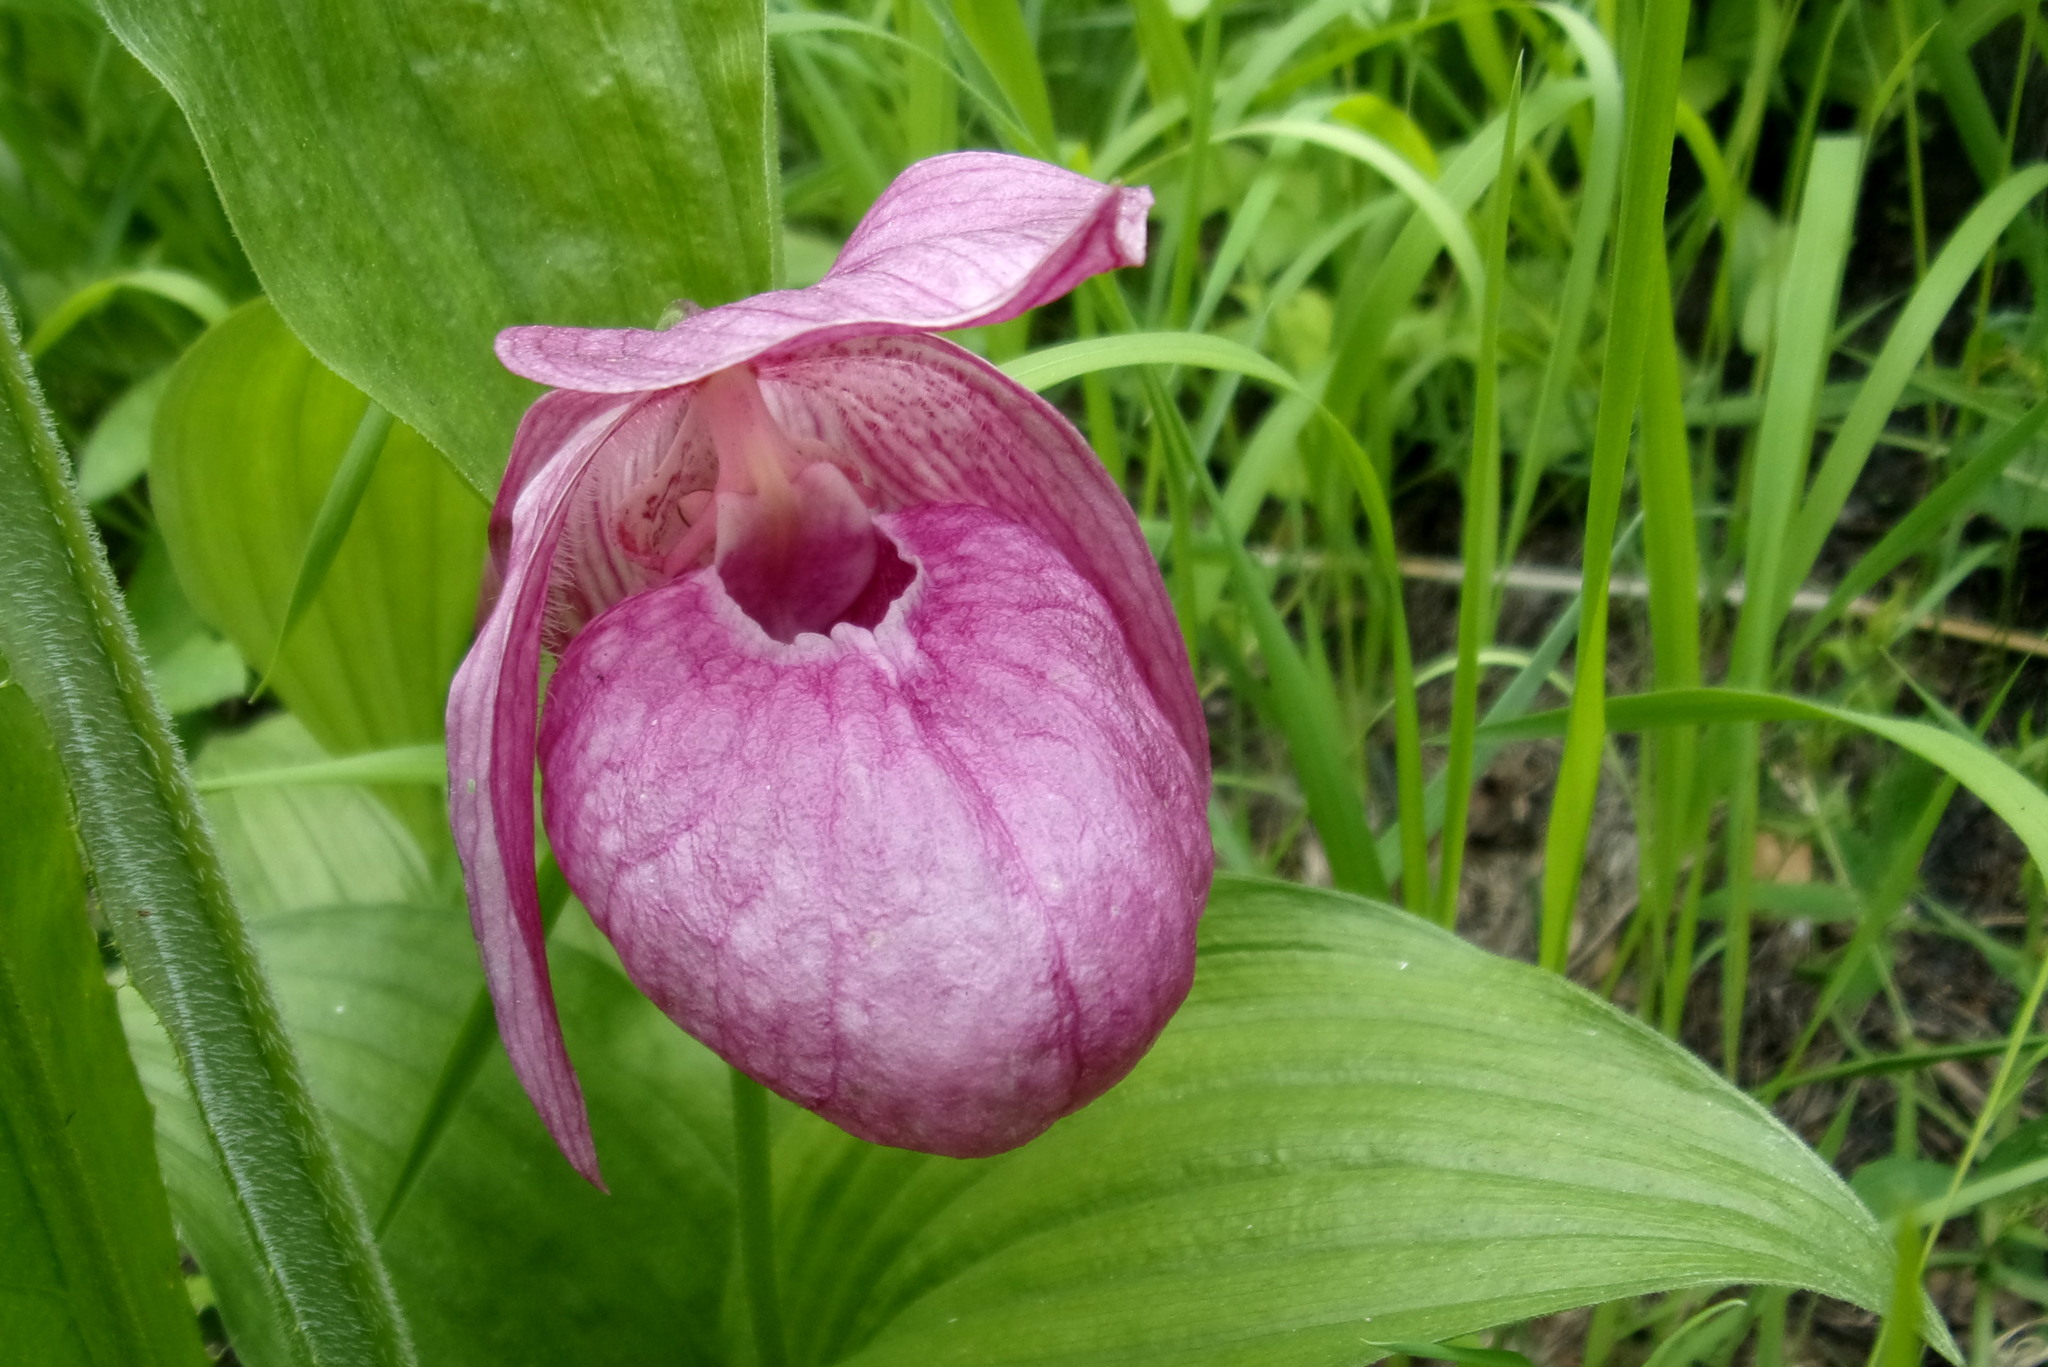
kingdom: Plantae
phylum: Tracheophyta
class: Liliopsida
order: Asparagales
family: Orchidaceae
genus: Cypripedium
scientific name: Cypripedium macranthos
